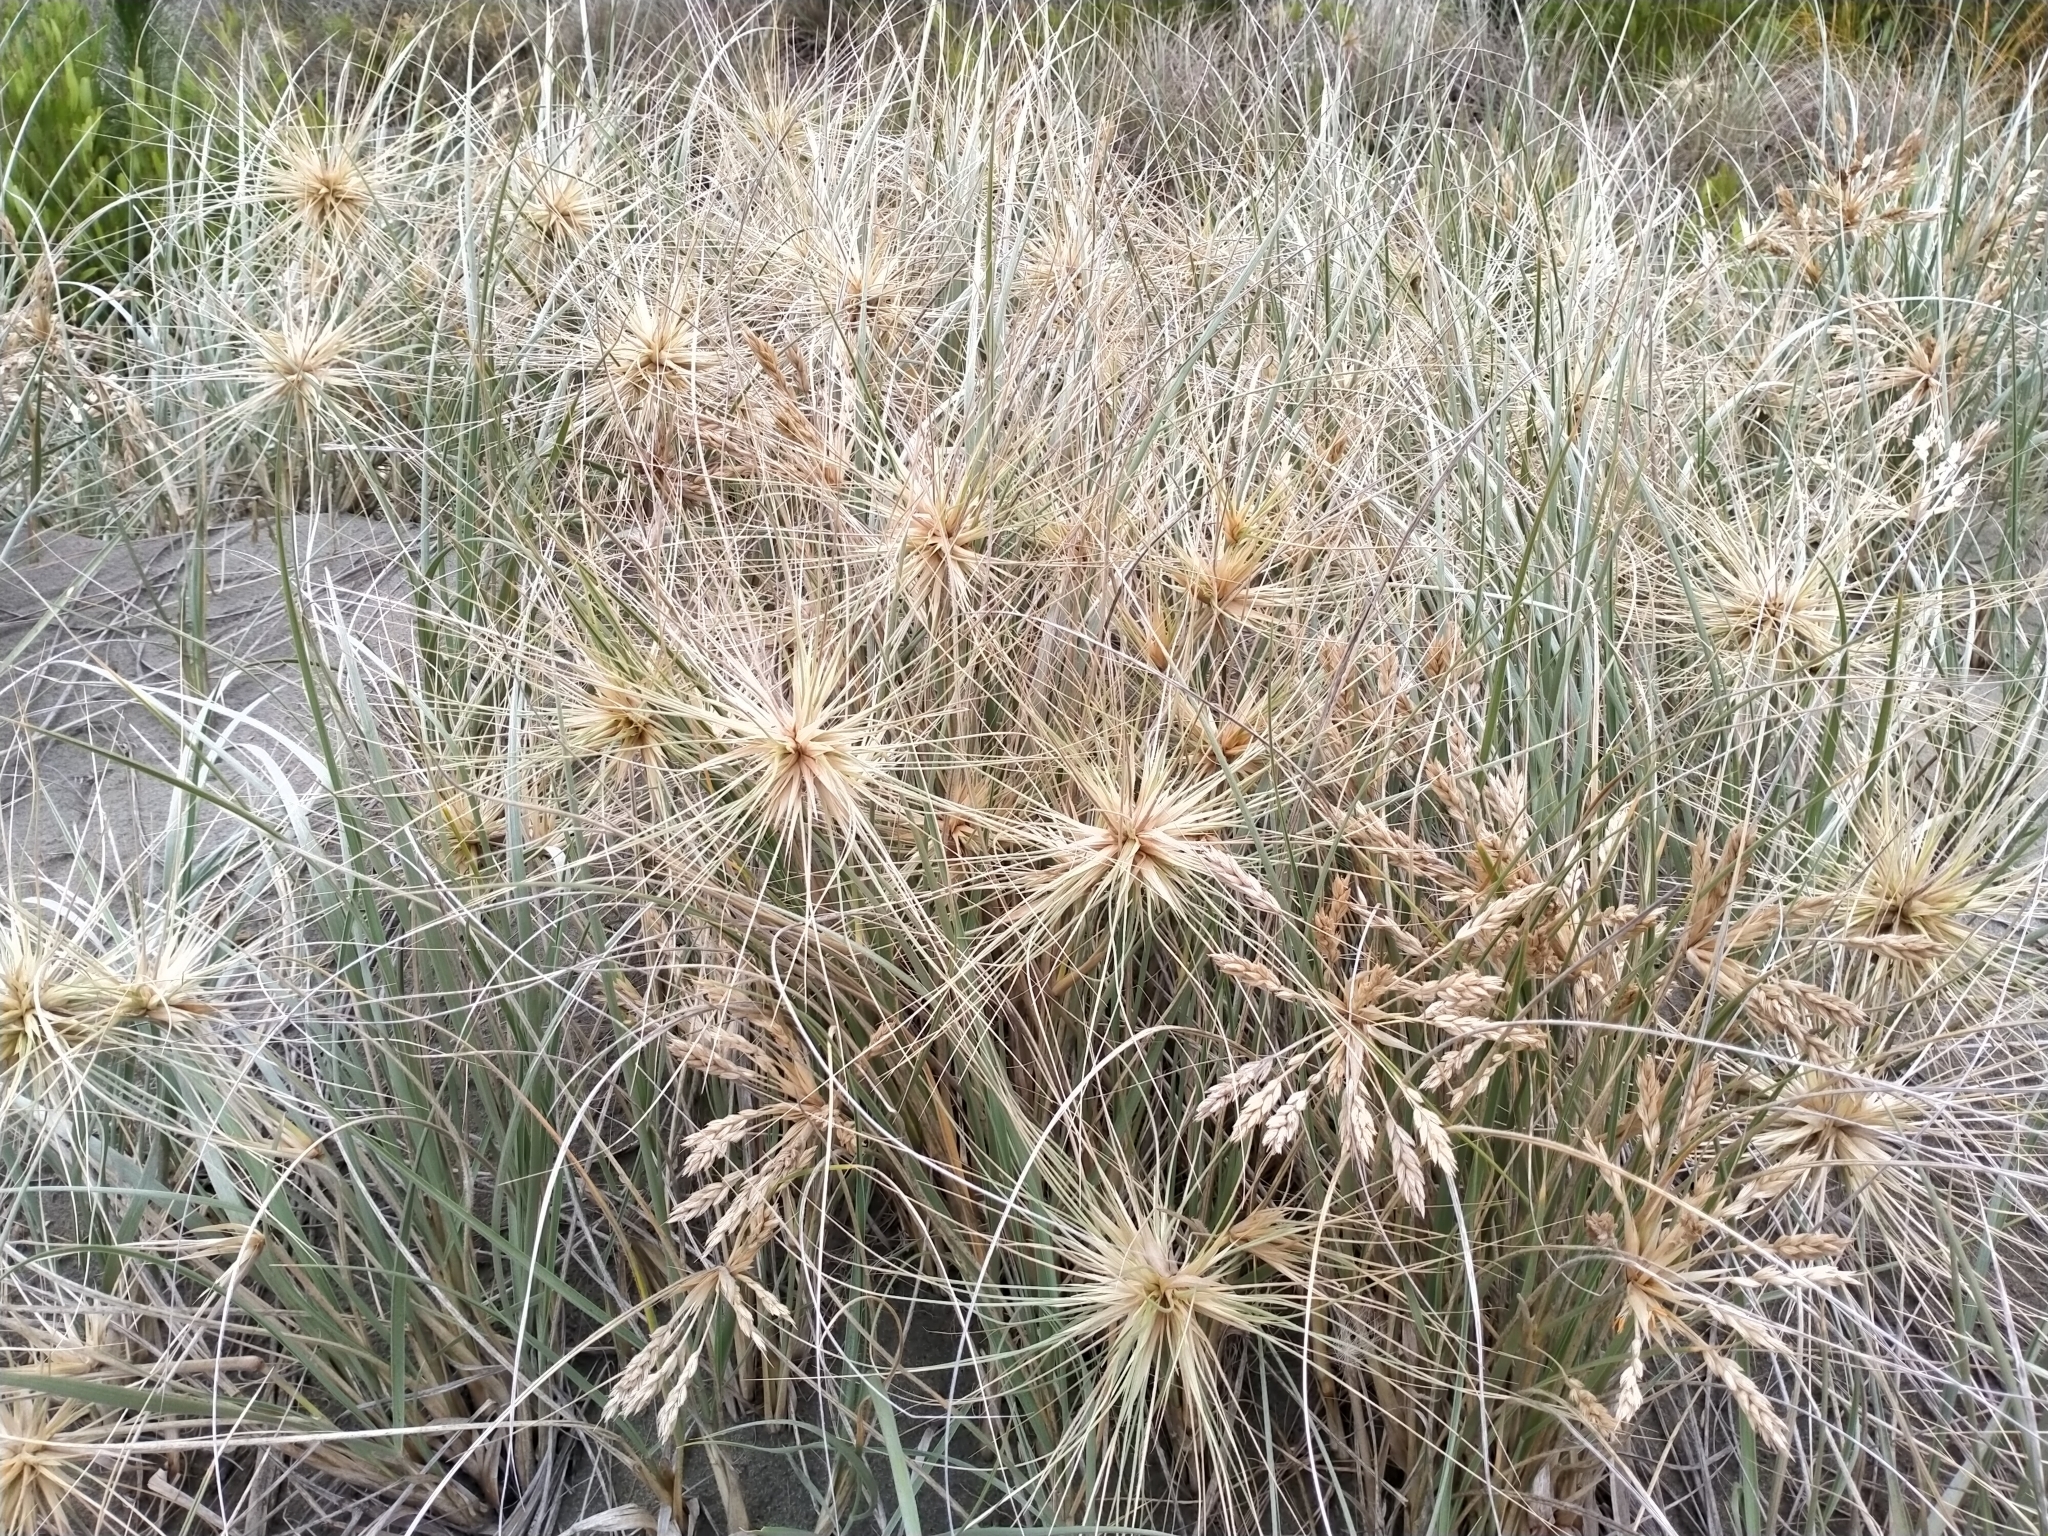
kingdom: Plantae
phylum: Tracheophyta
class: Liliopsida
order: Poales
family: Poaceae
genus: Spinifex
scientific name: Spinifex sericeus
